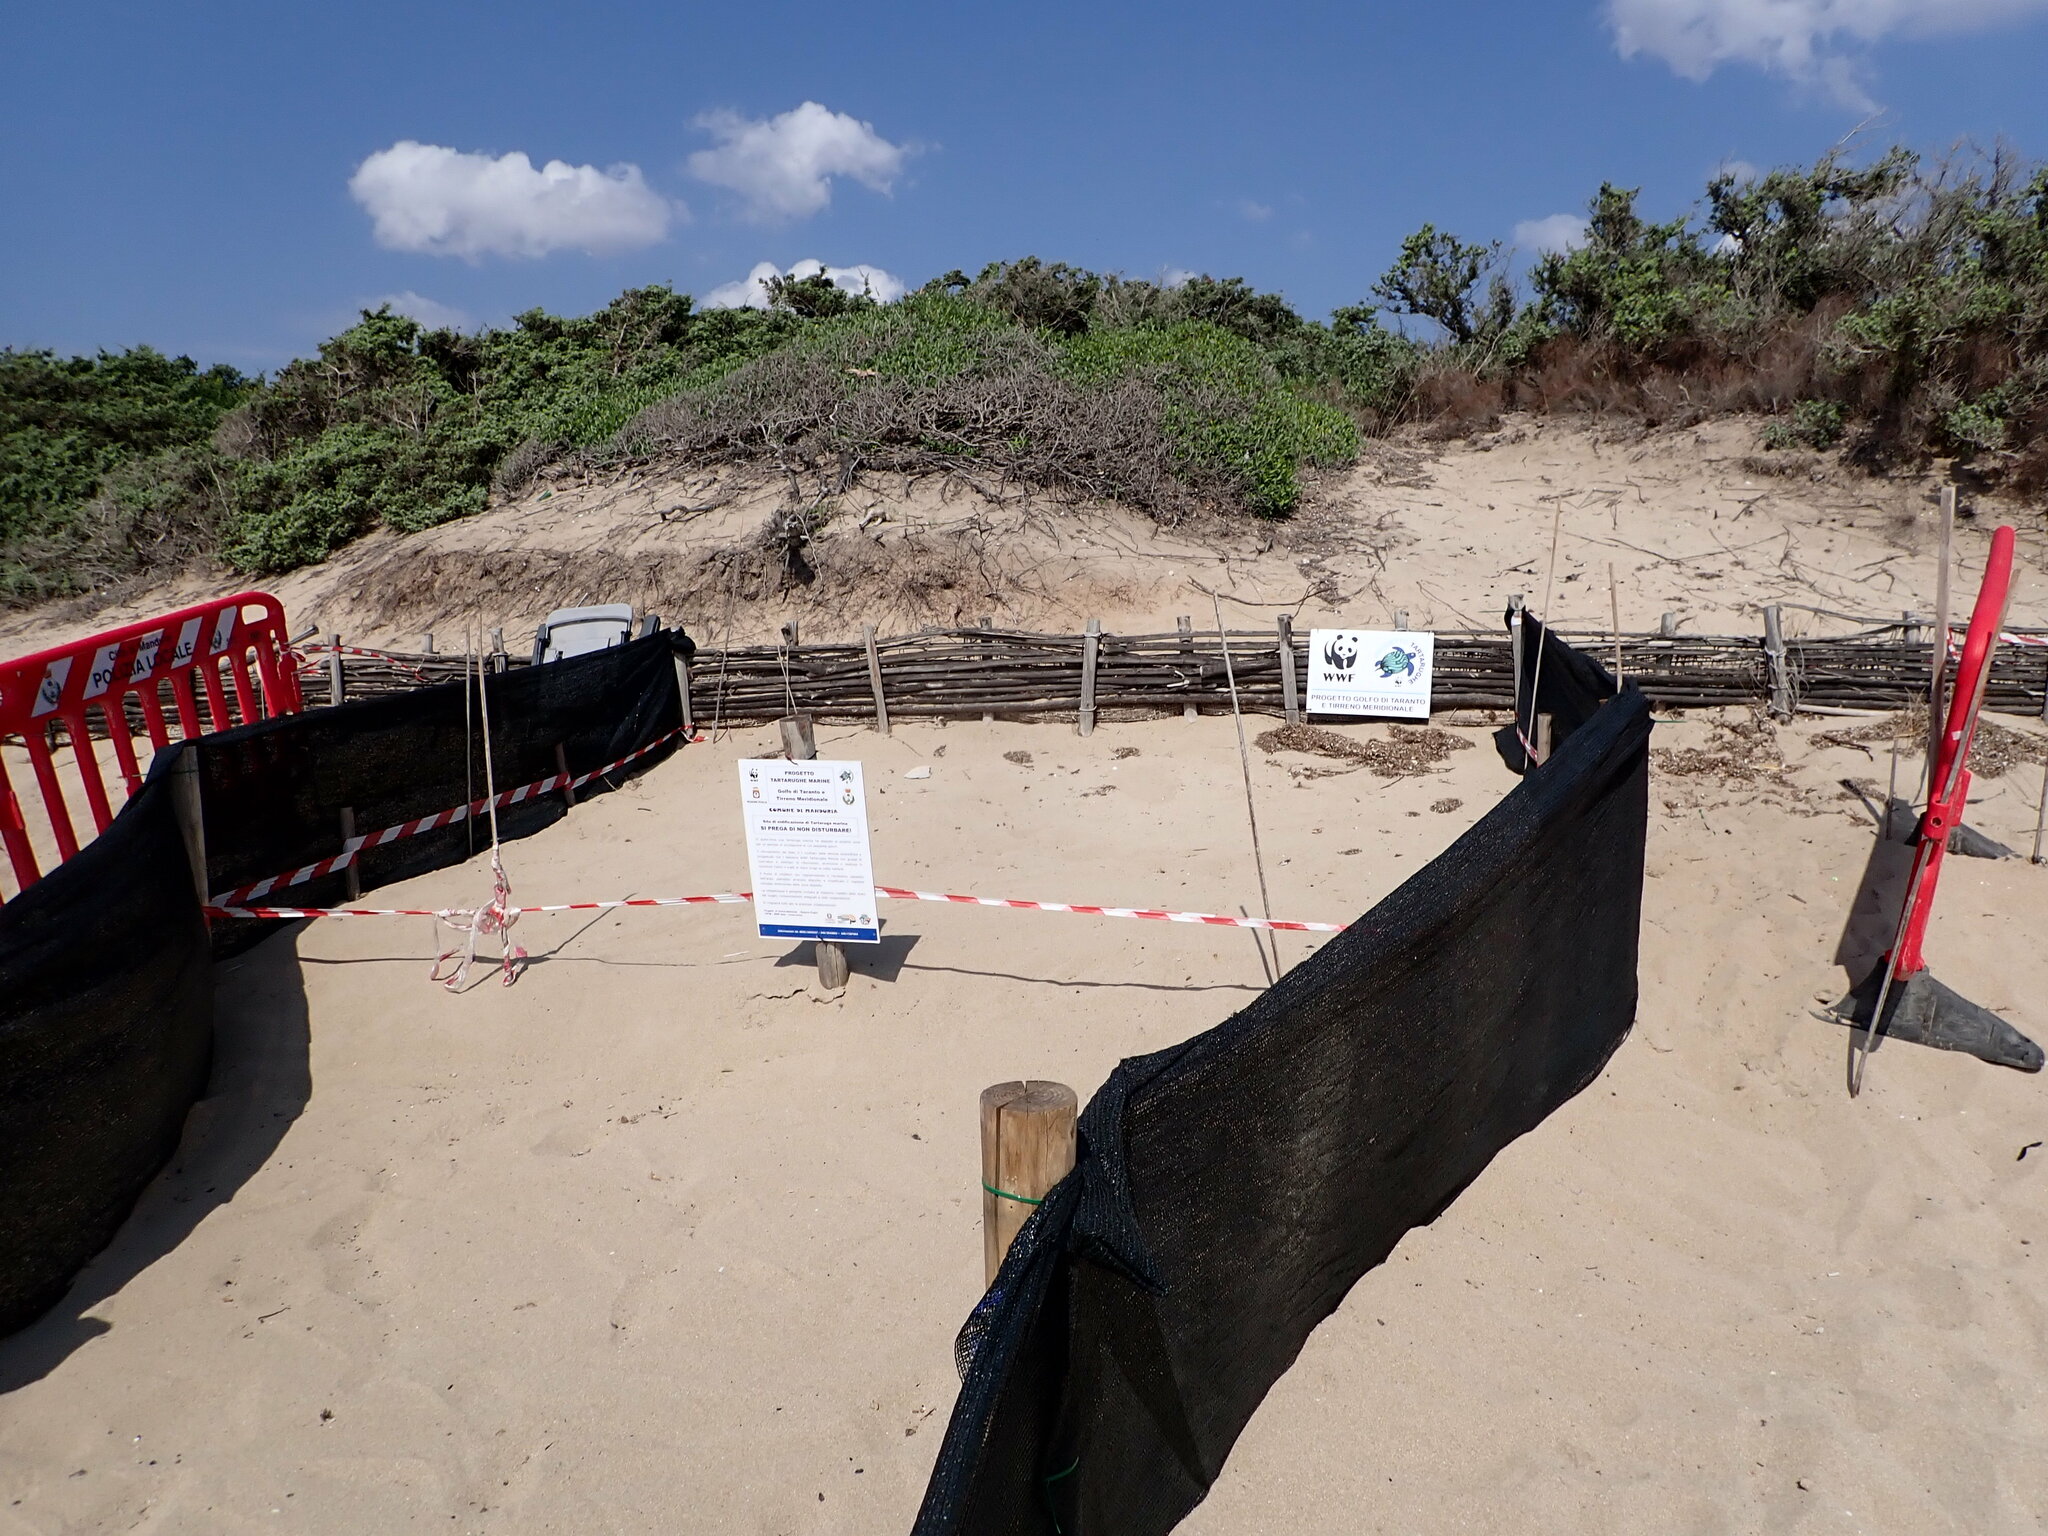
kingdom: Animalia
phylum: Chordata
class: Testudines
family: Cheloniidae
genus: Caretta
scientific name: Caretta caretta
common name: Loggerhead sea turtle
